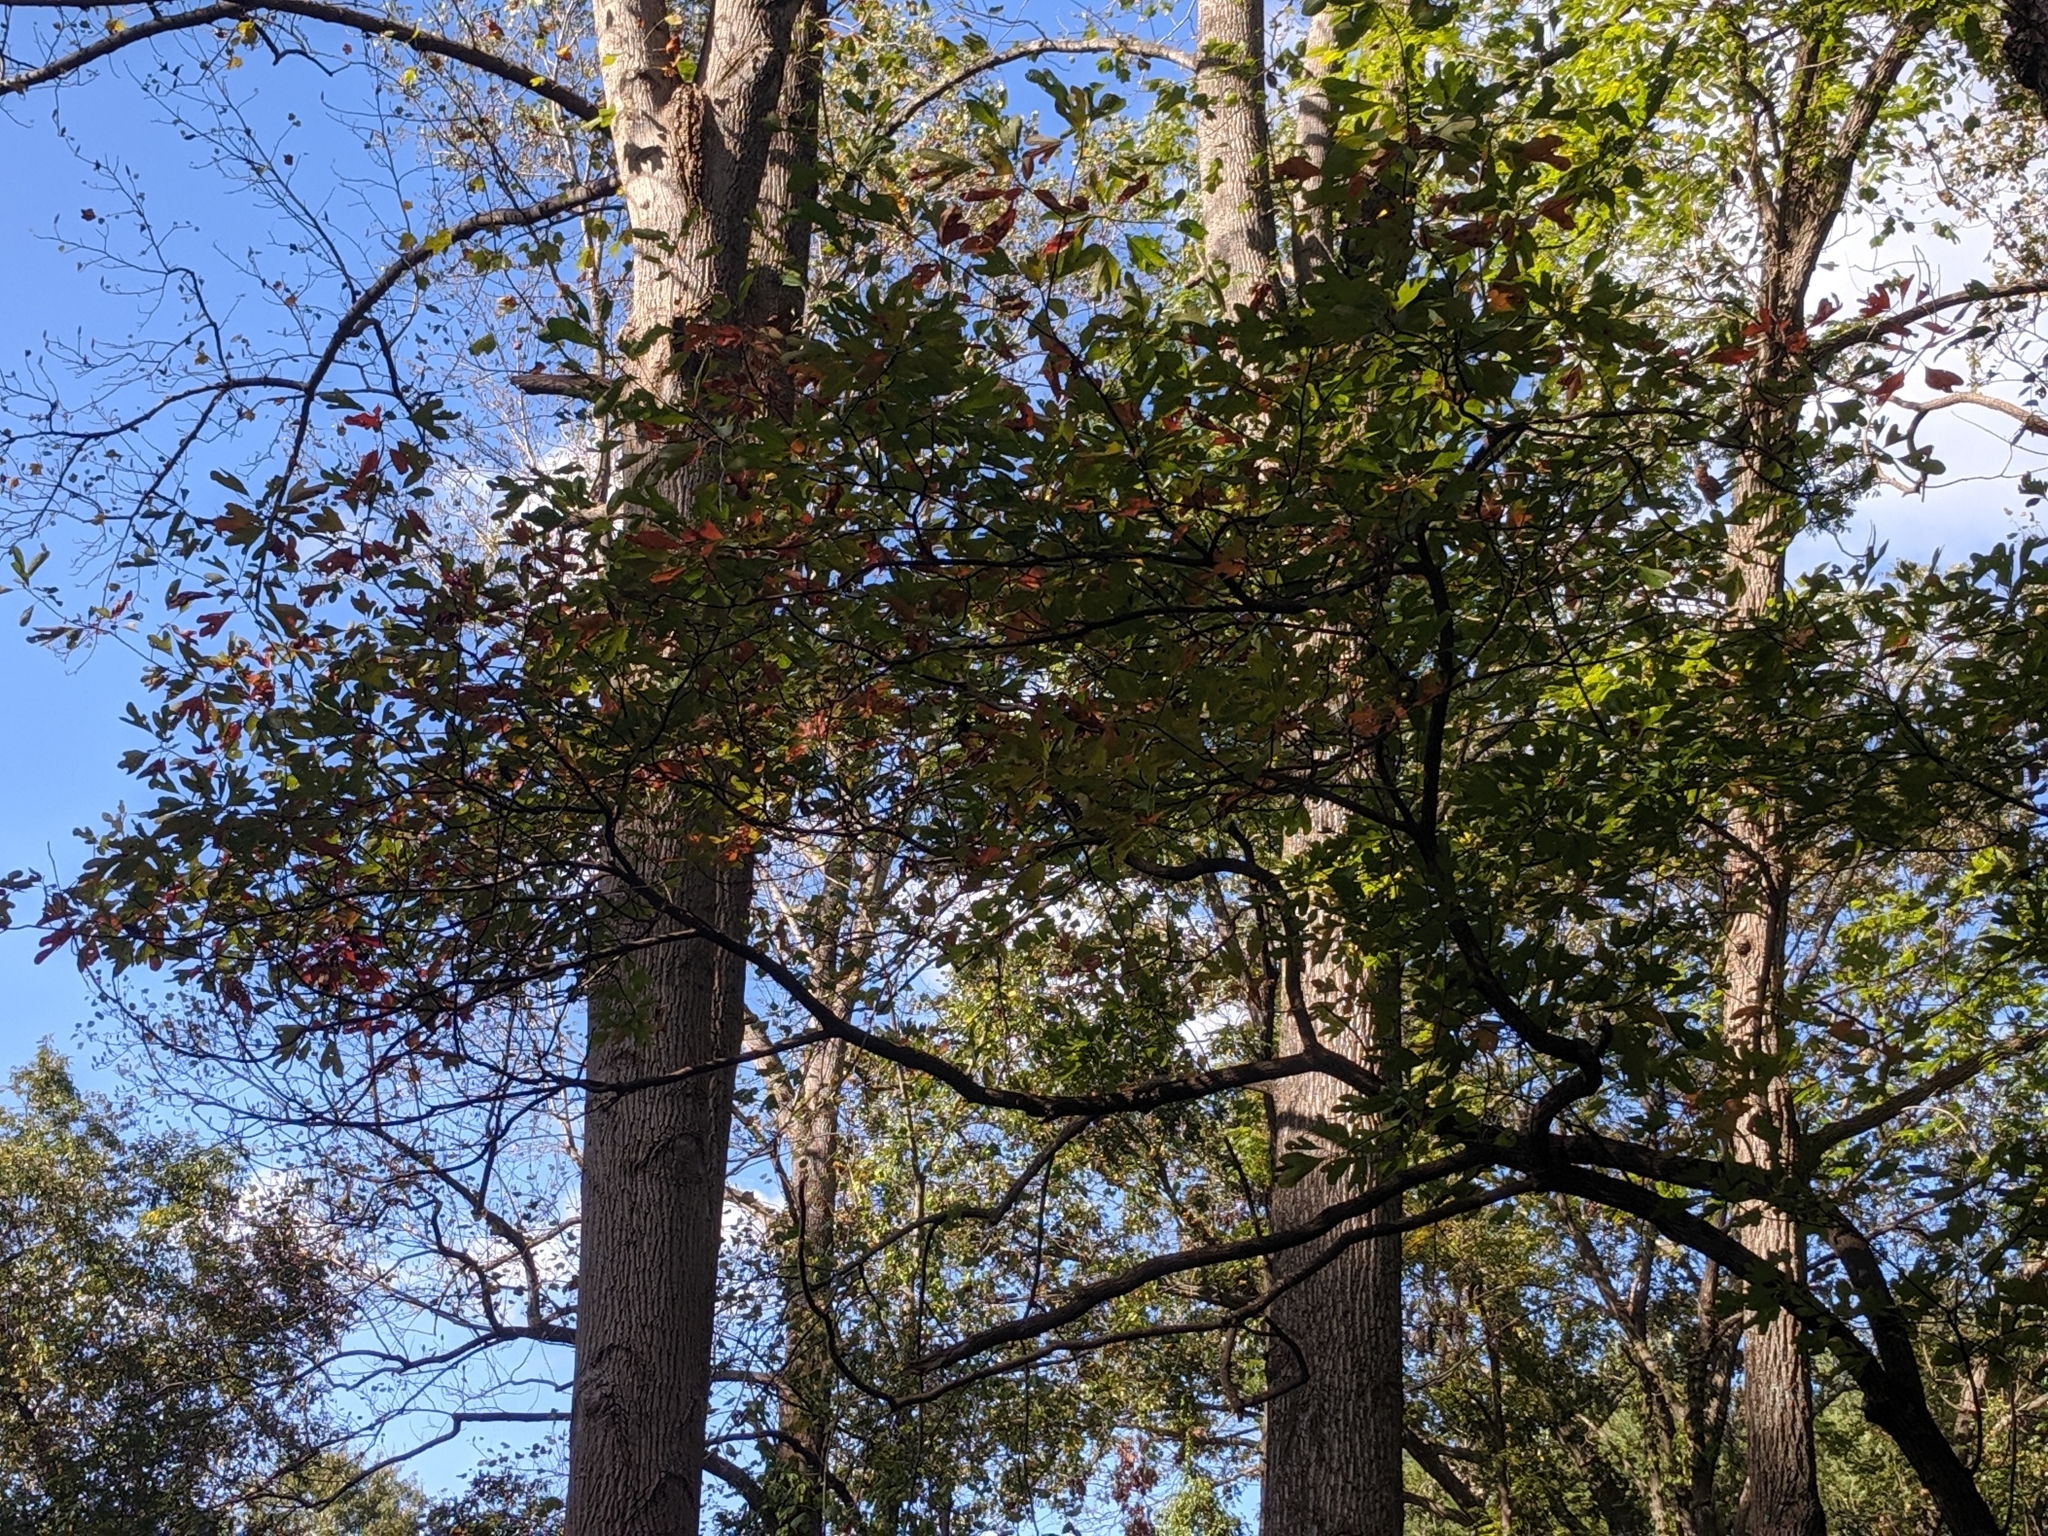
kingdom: Plantae
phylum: Tracheophyta
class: Magnoliopsida
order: Laurales
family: Lauraceae
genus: Sassafras
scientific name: Sassafras albidum
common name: Sassafras
